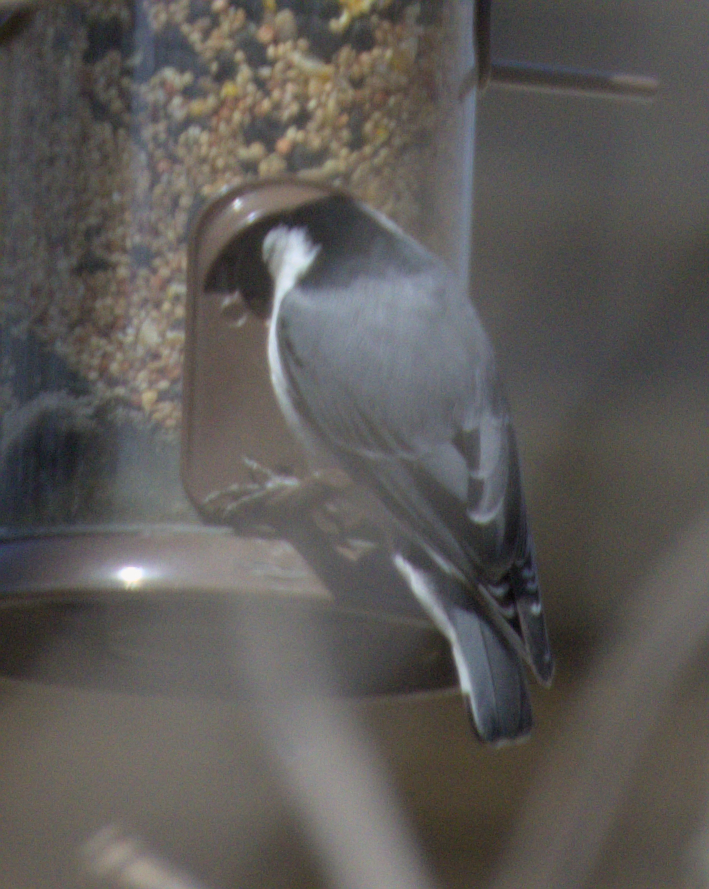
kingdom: Animalia
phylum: Chordata
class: Aves
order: Passeriformes
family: Sittidae
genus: Sitta
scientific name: Sitta carolinensis
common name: White-breasted nuthatch
